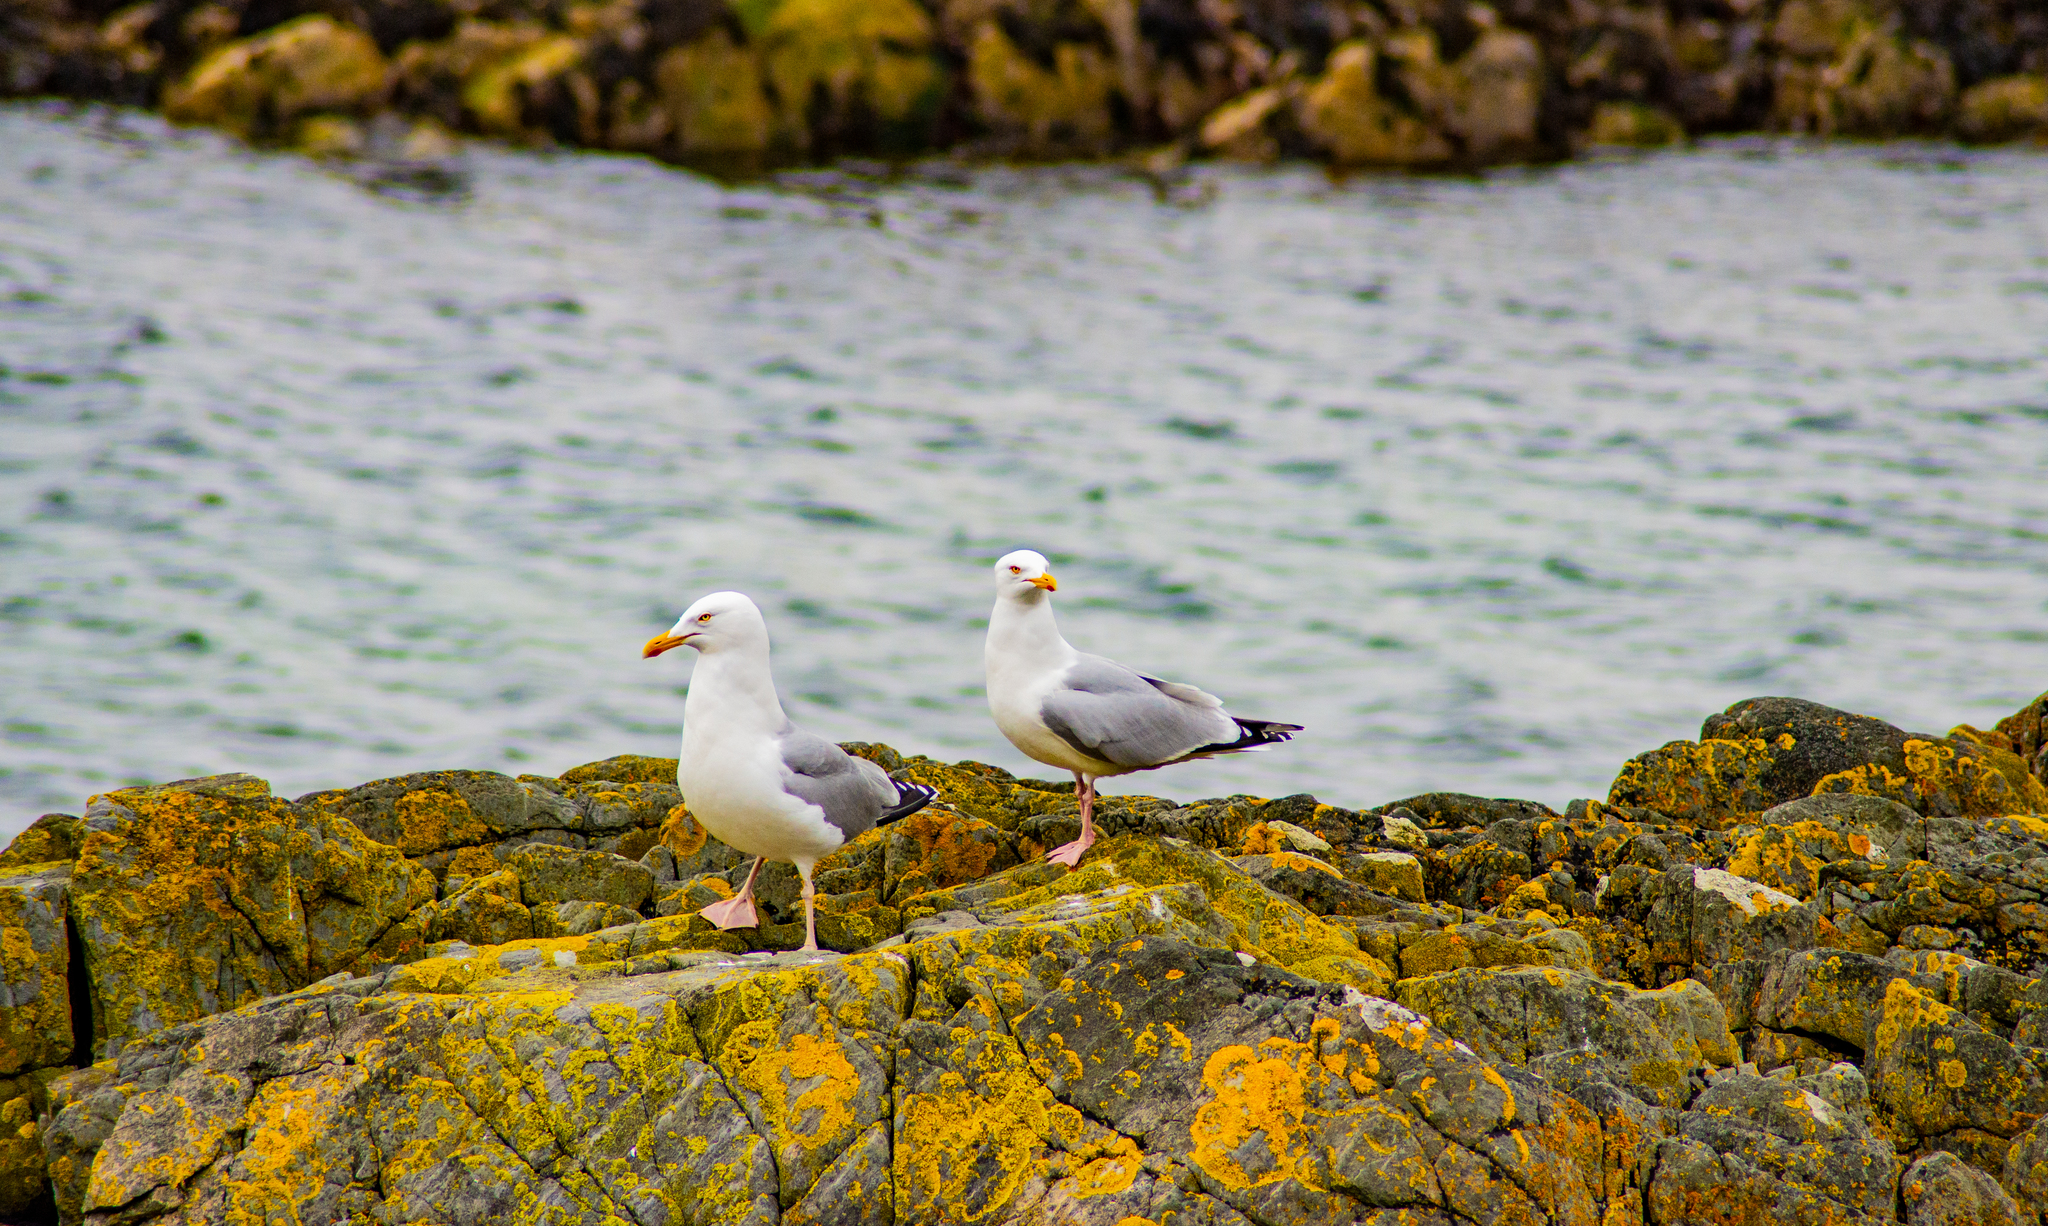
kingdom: Animalia
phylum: Chordata
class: Aves
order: Charadriiformes
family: Laridae
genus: Larus
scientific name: Larus argentatus
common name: Herring gull
